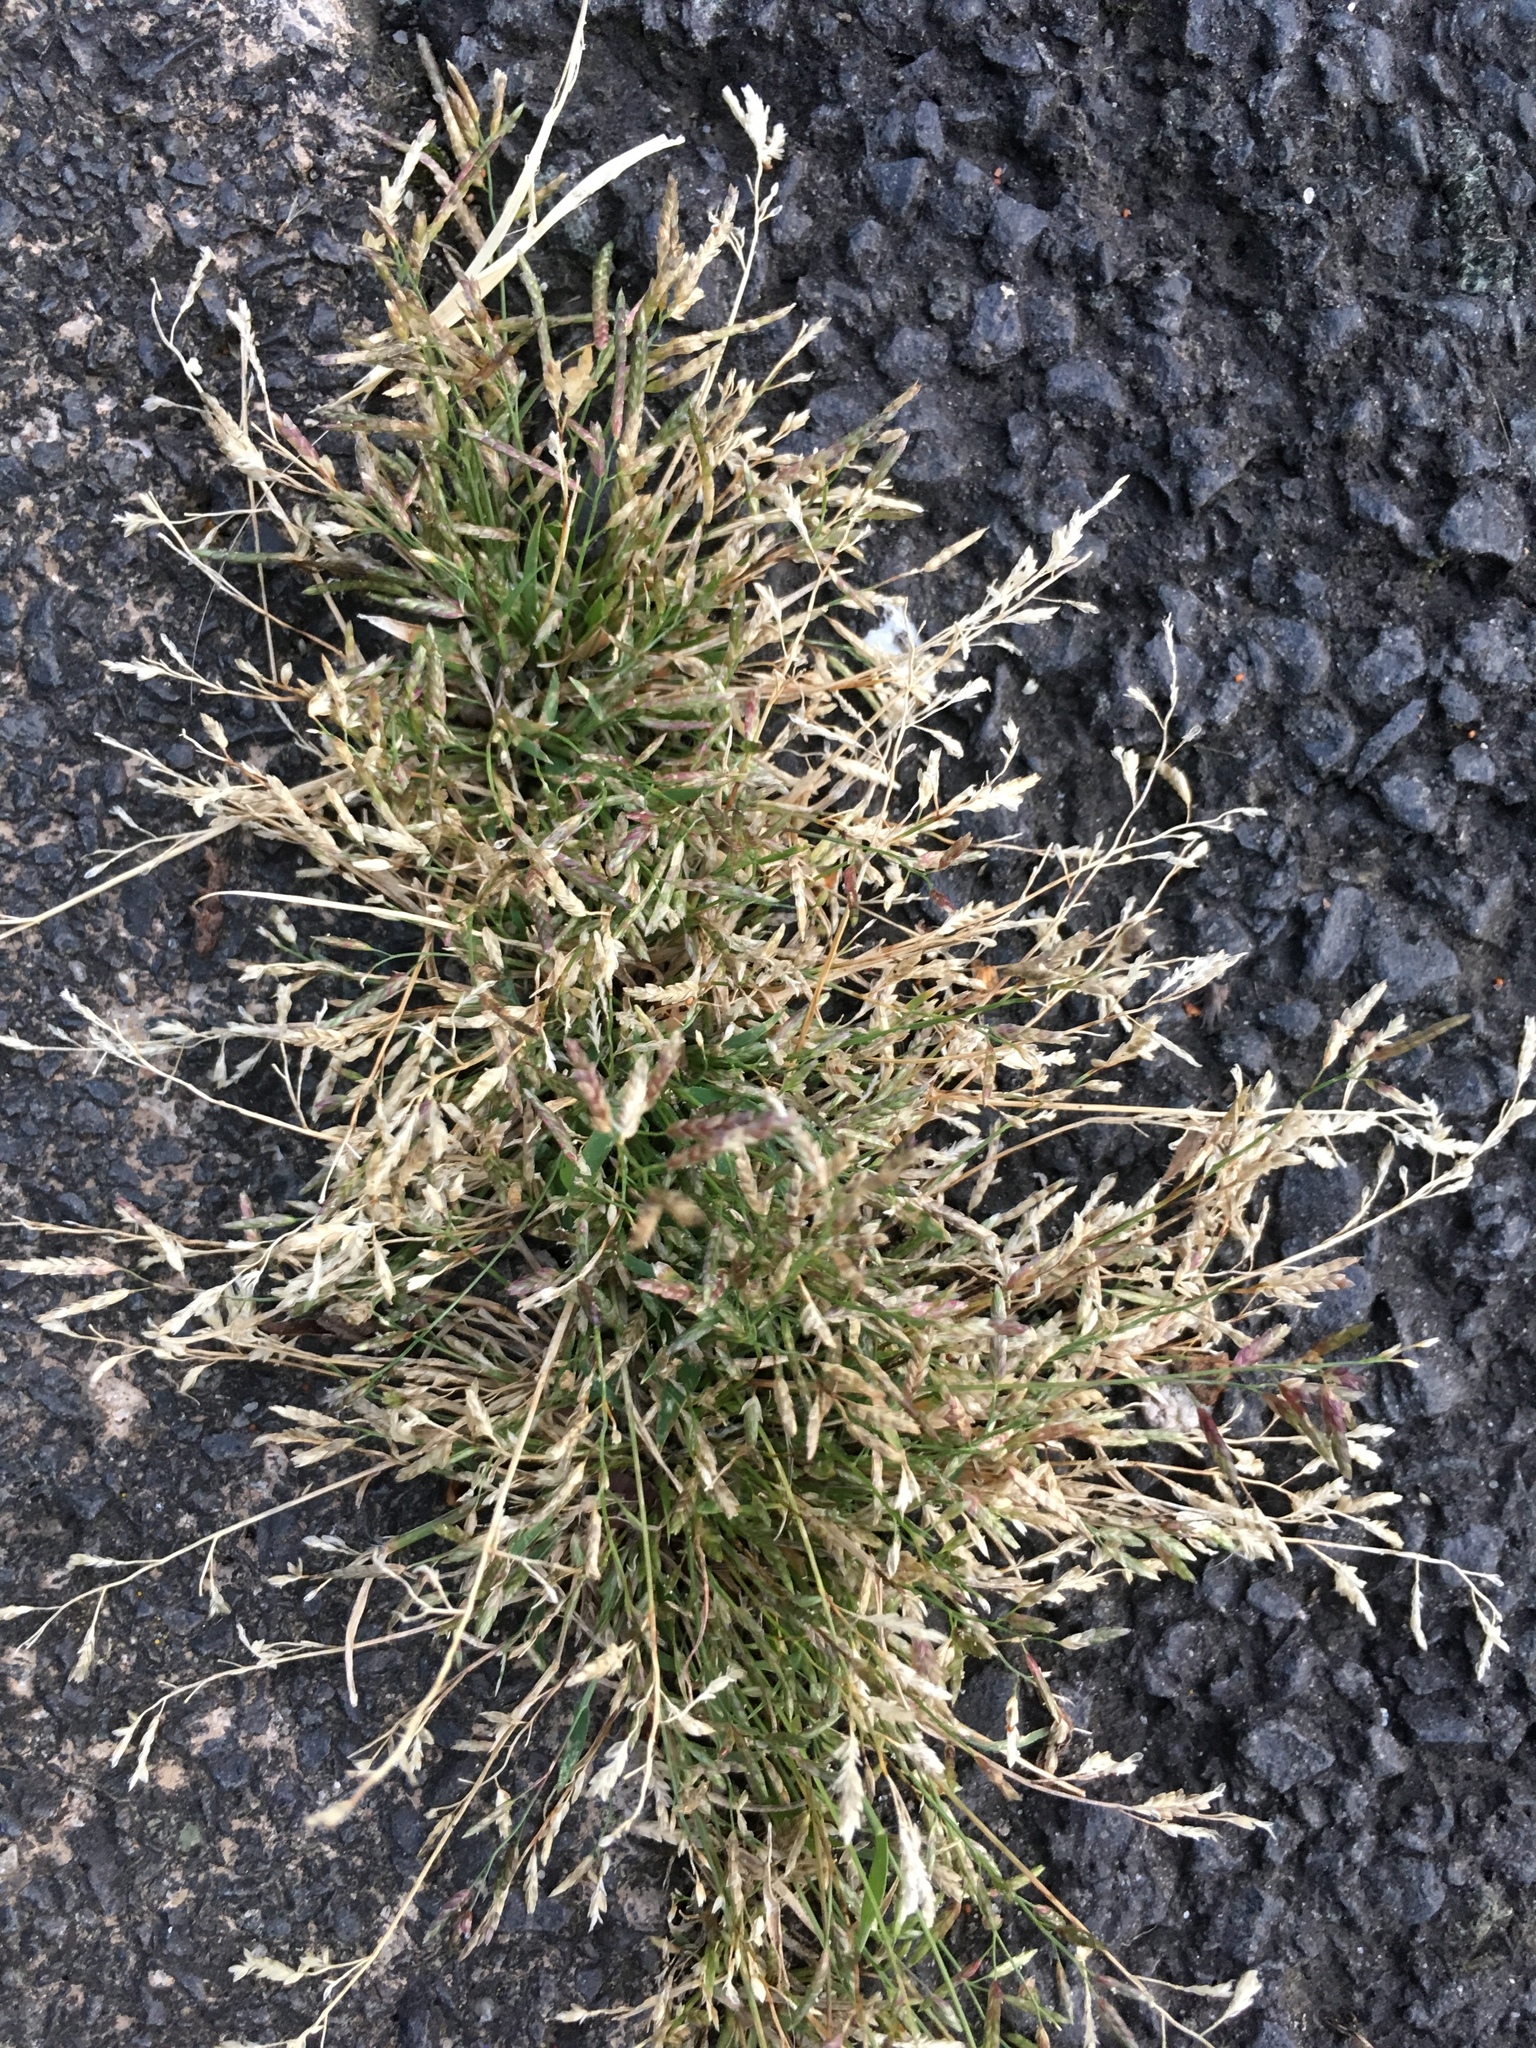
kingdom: Plantae
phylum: Tracheophyta
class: Liliopsida
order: Poales
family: Poaceae
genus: Eragrostis
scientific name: Eragrostis minor
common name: Small love-grass
